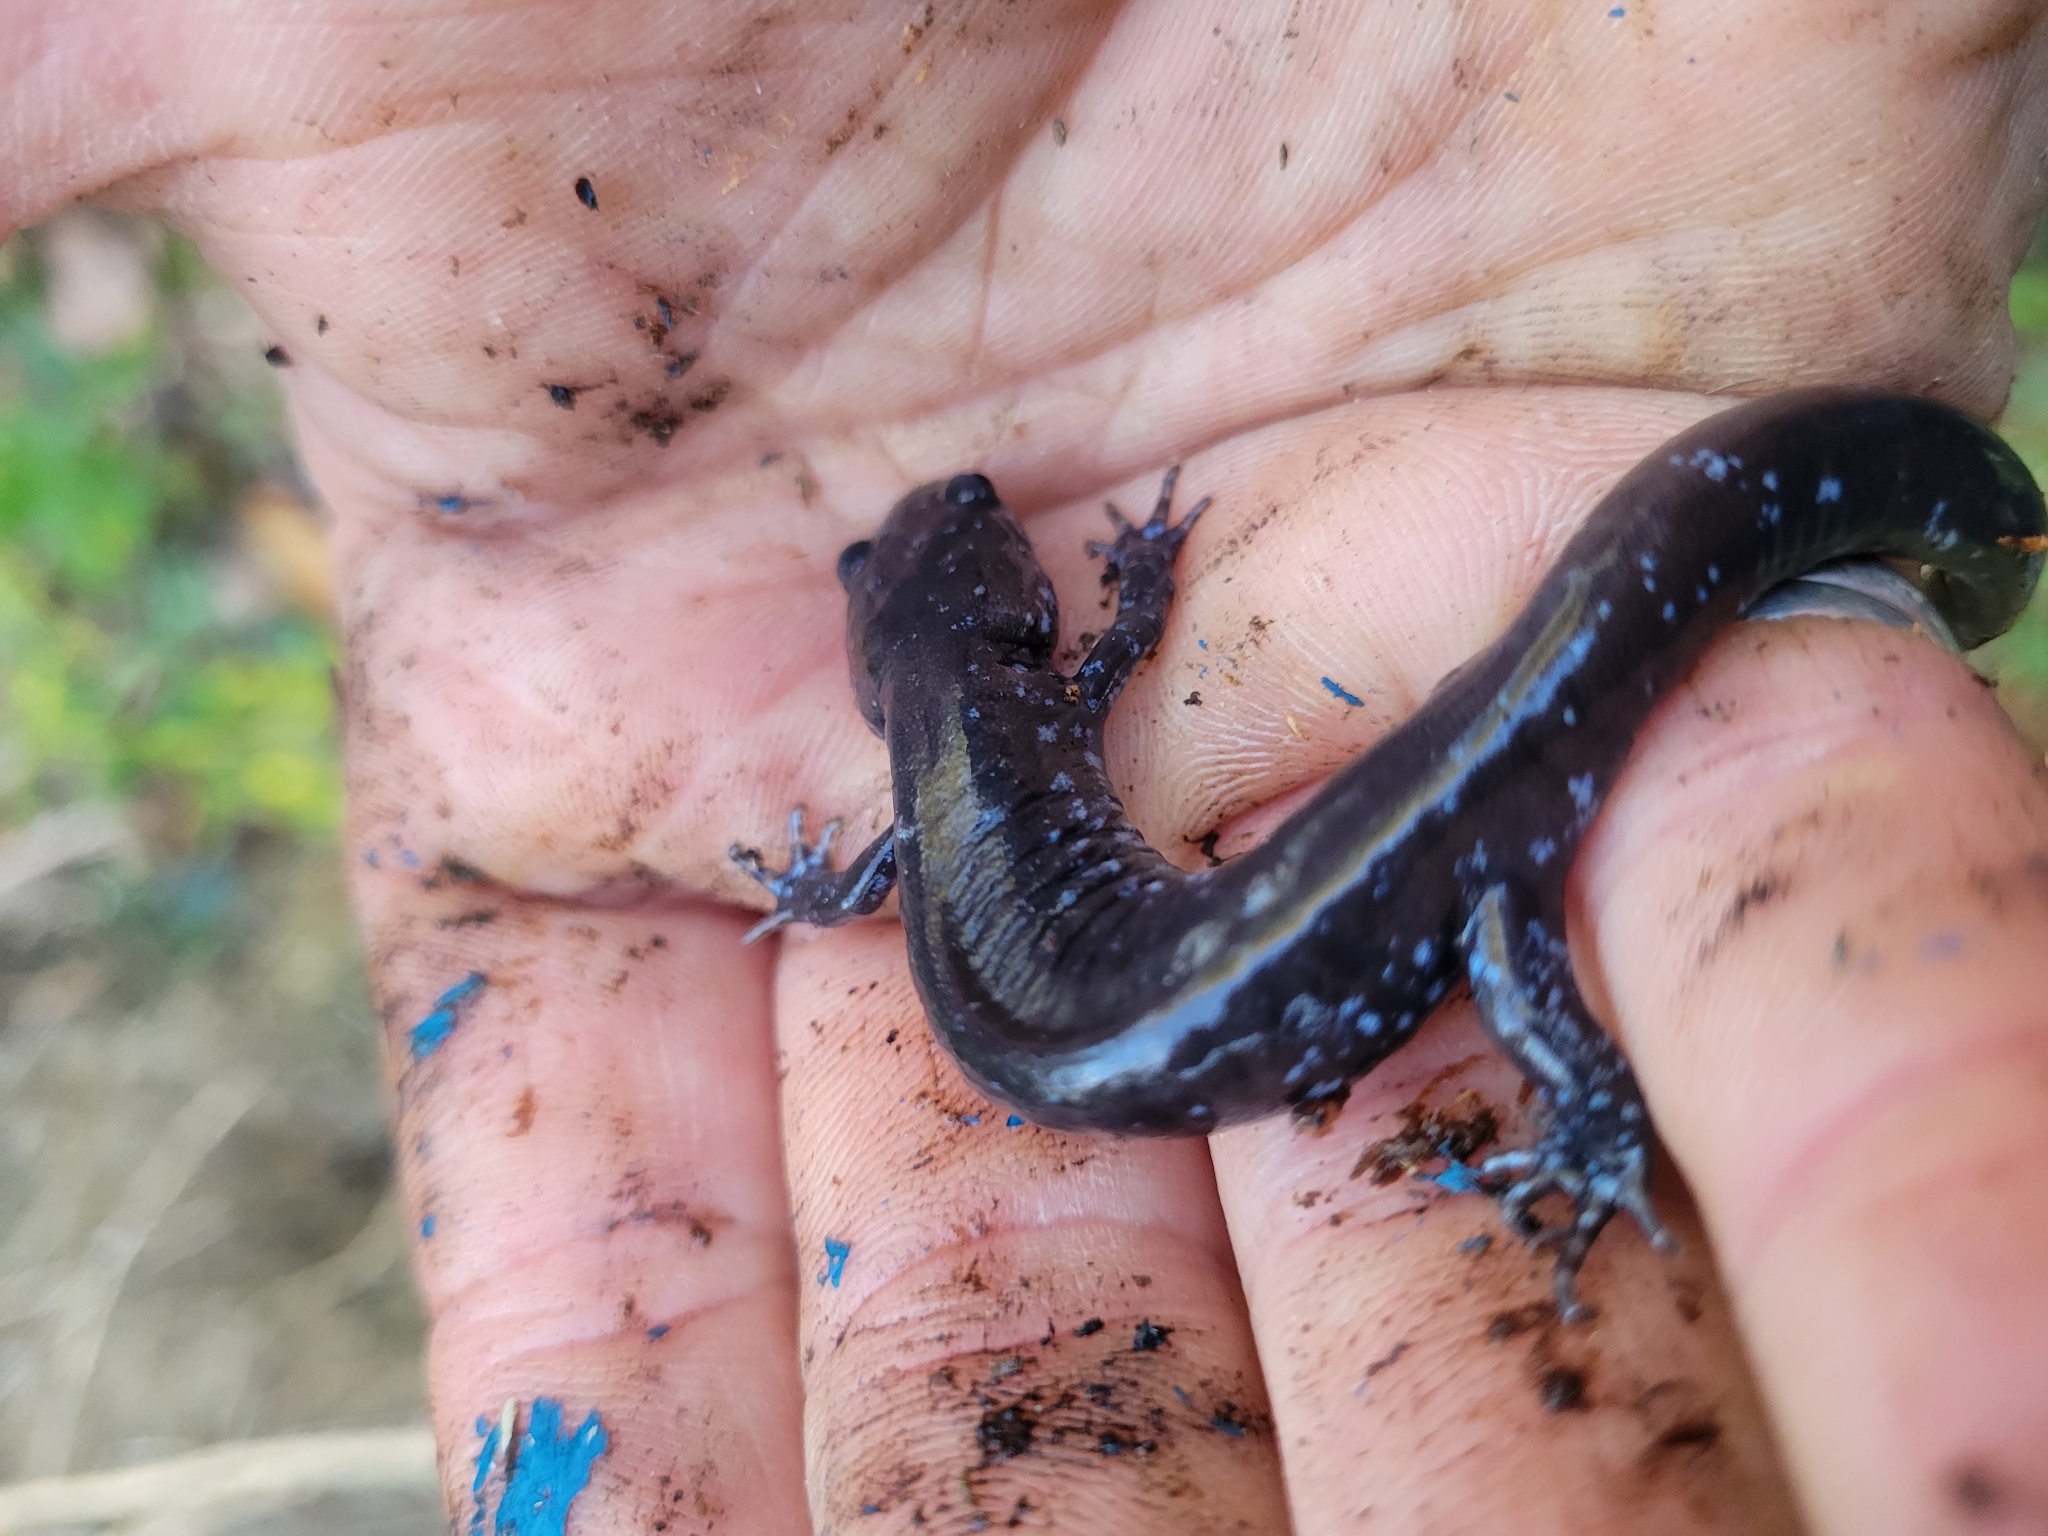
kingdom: Animalia
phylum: Chordata
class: Amphibia
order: Caudata
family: Ambystomatidae
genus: Ambystoma
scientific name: Ambystoma laterale
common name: Blue-spotted salamander
